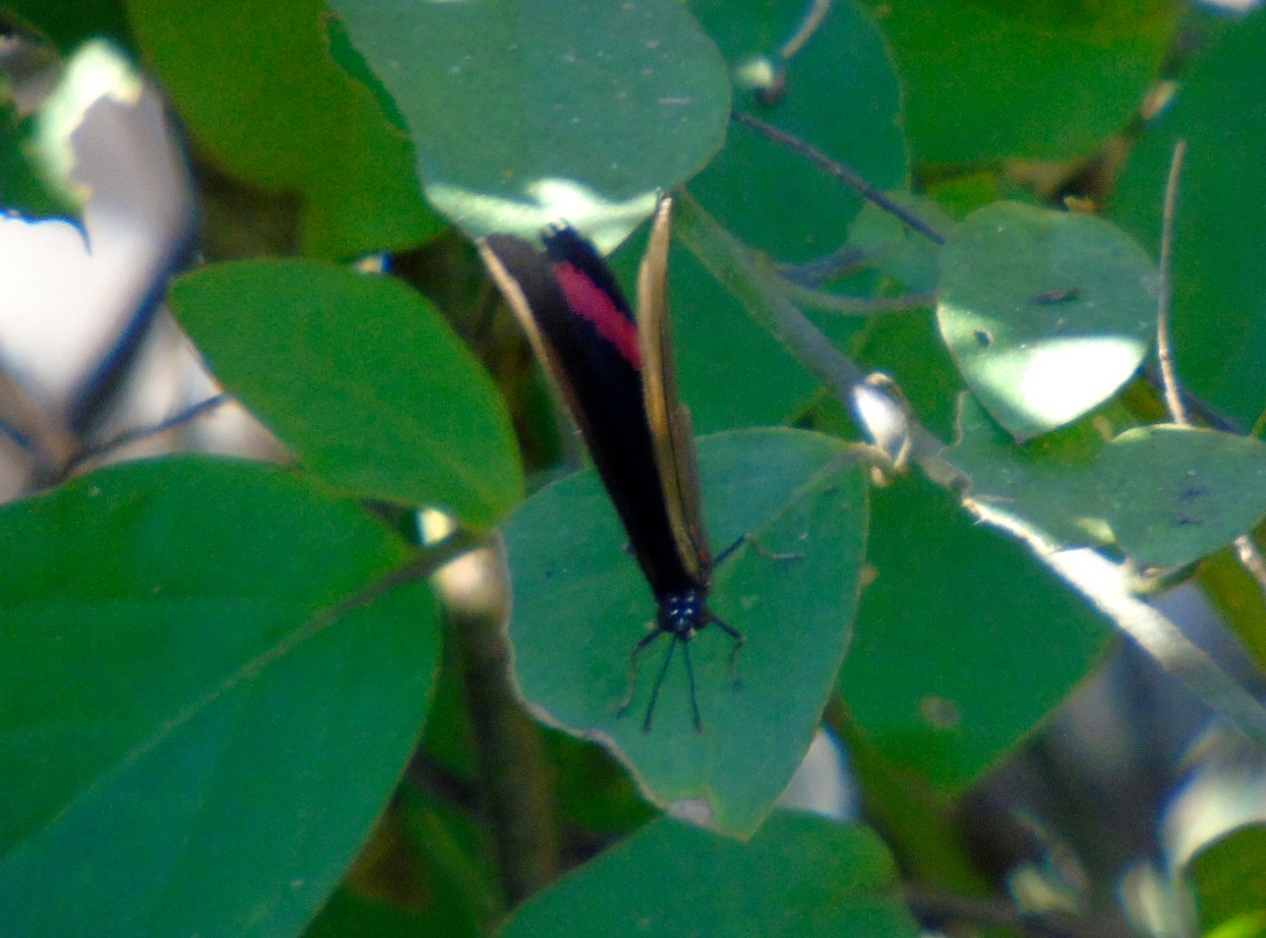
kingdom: Animalia
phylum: Arthropoda
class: Insecta
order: Lepidoptera
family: Nymphalidae
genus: Biblis
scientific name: Biblis aganisa
